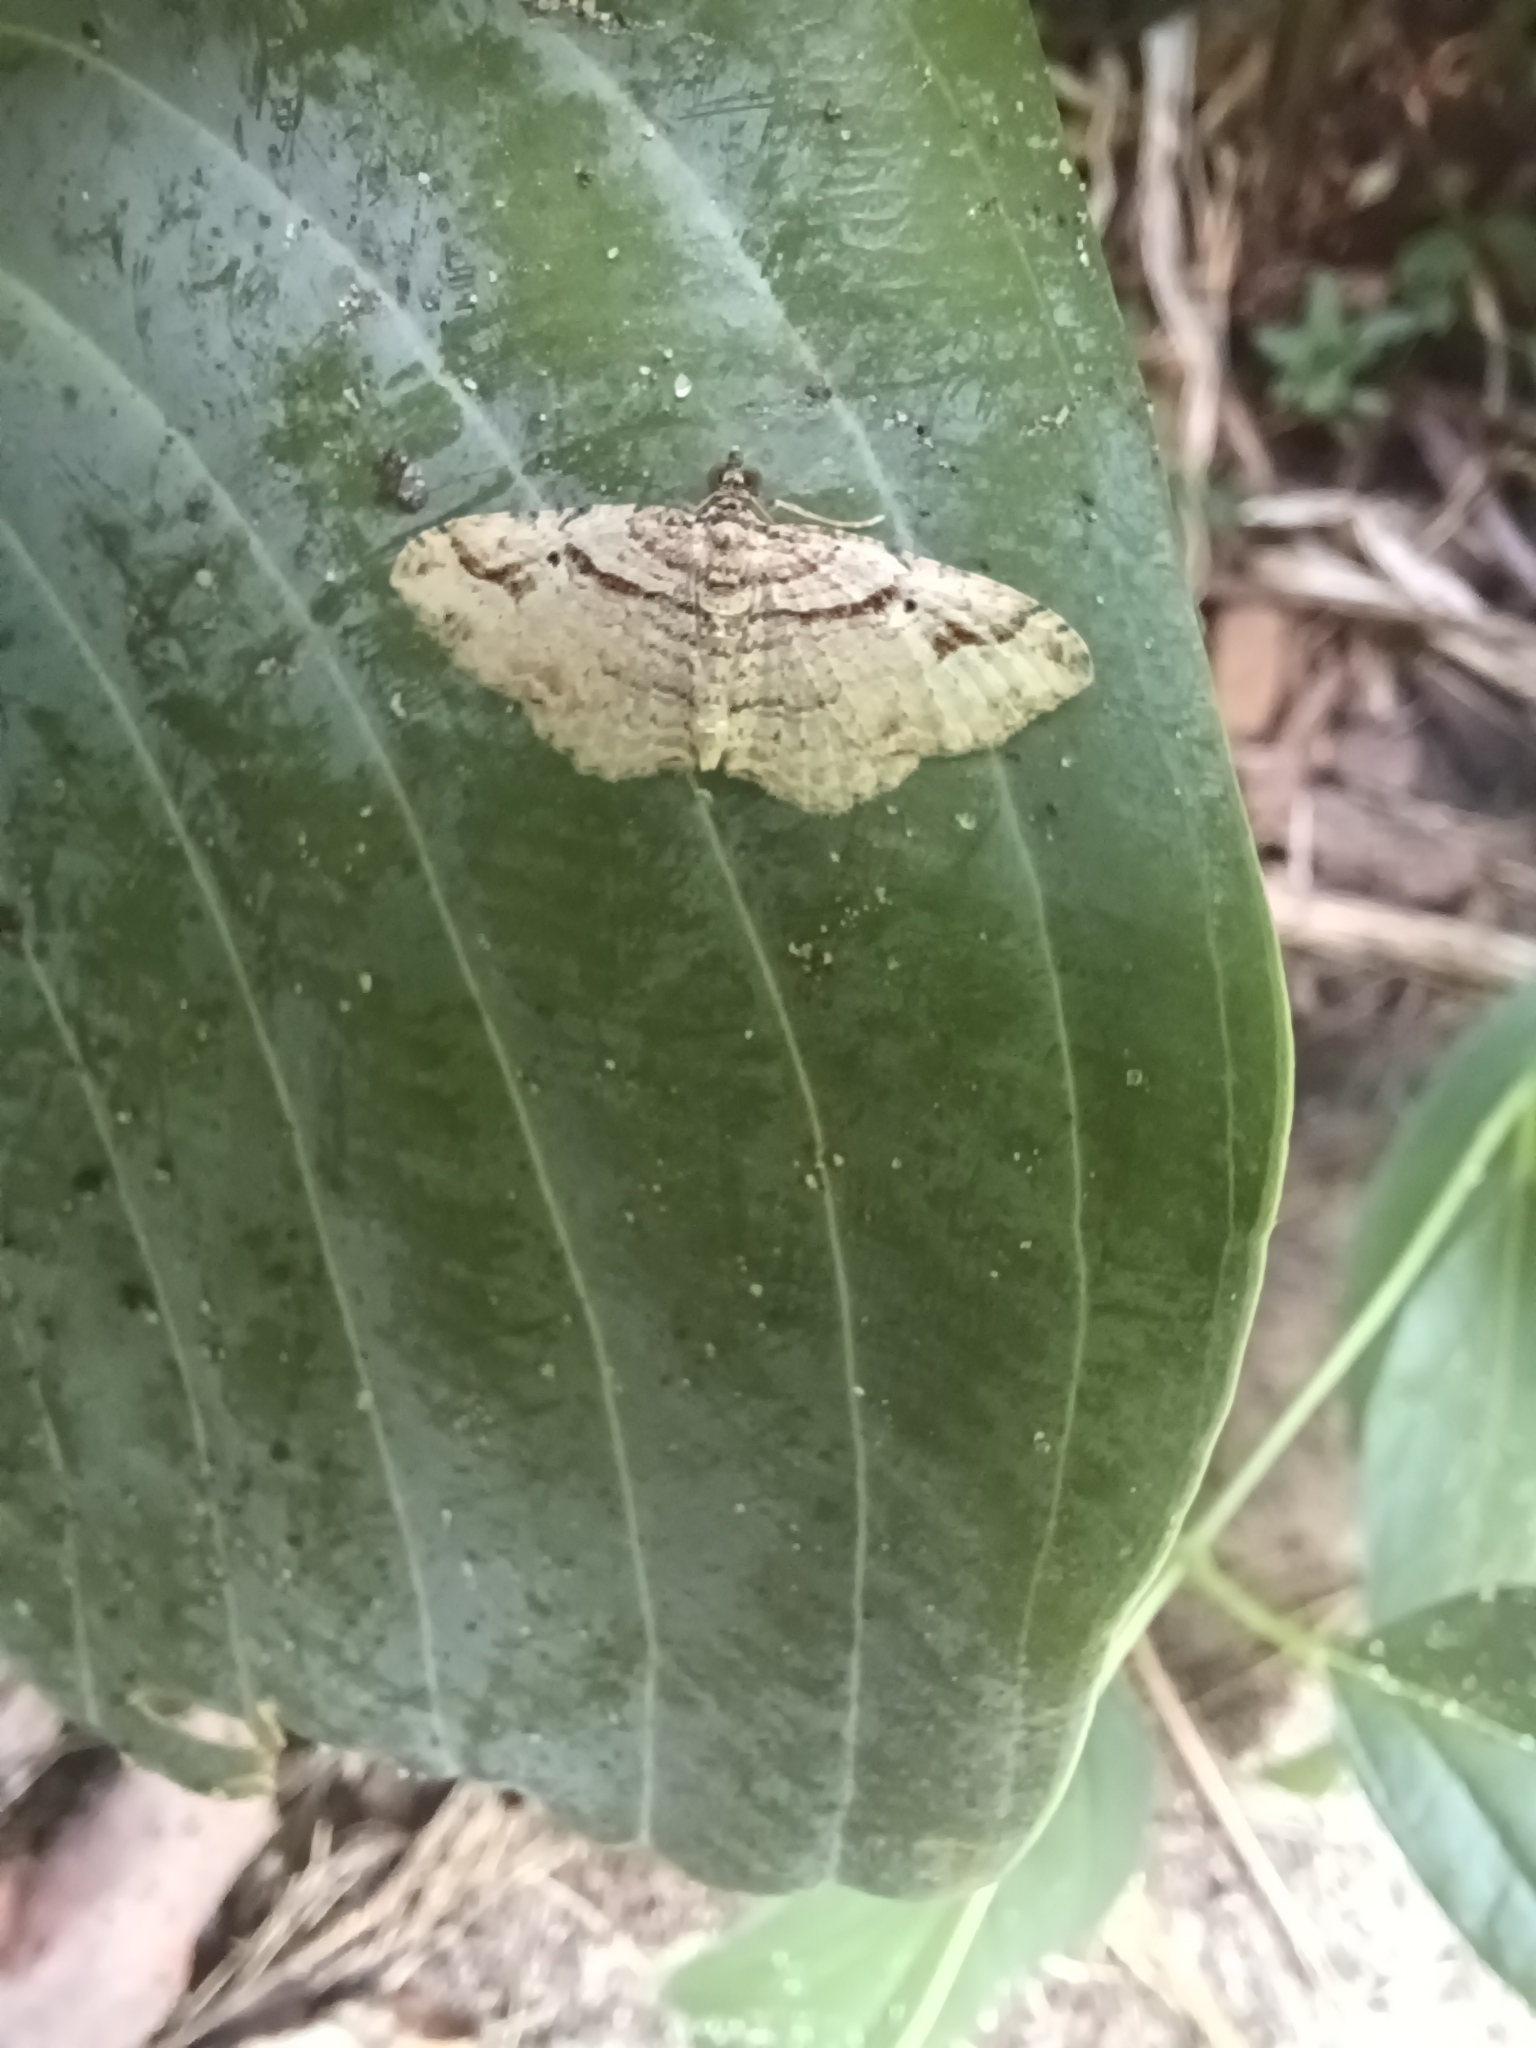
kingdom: Animalia
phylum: Arthropoda
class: Insecta
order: Lepidoptera
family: Geometridae
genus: Costaconvexa
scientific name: Costaconvexa centrostrigaria
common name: Bent-line carpet
